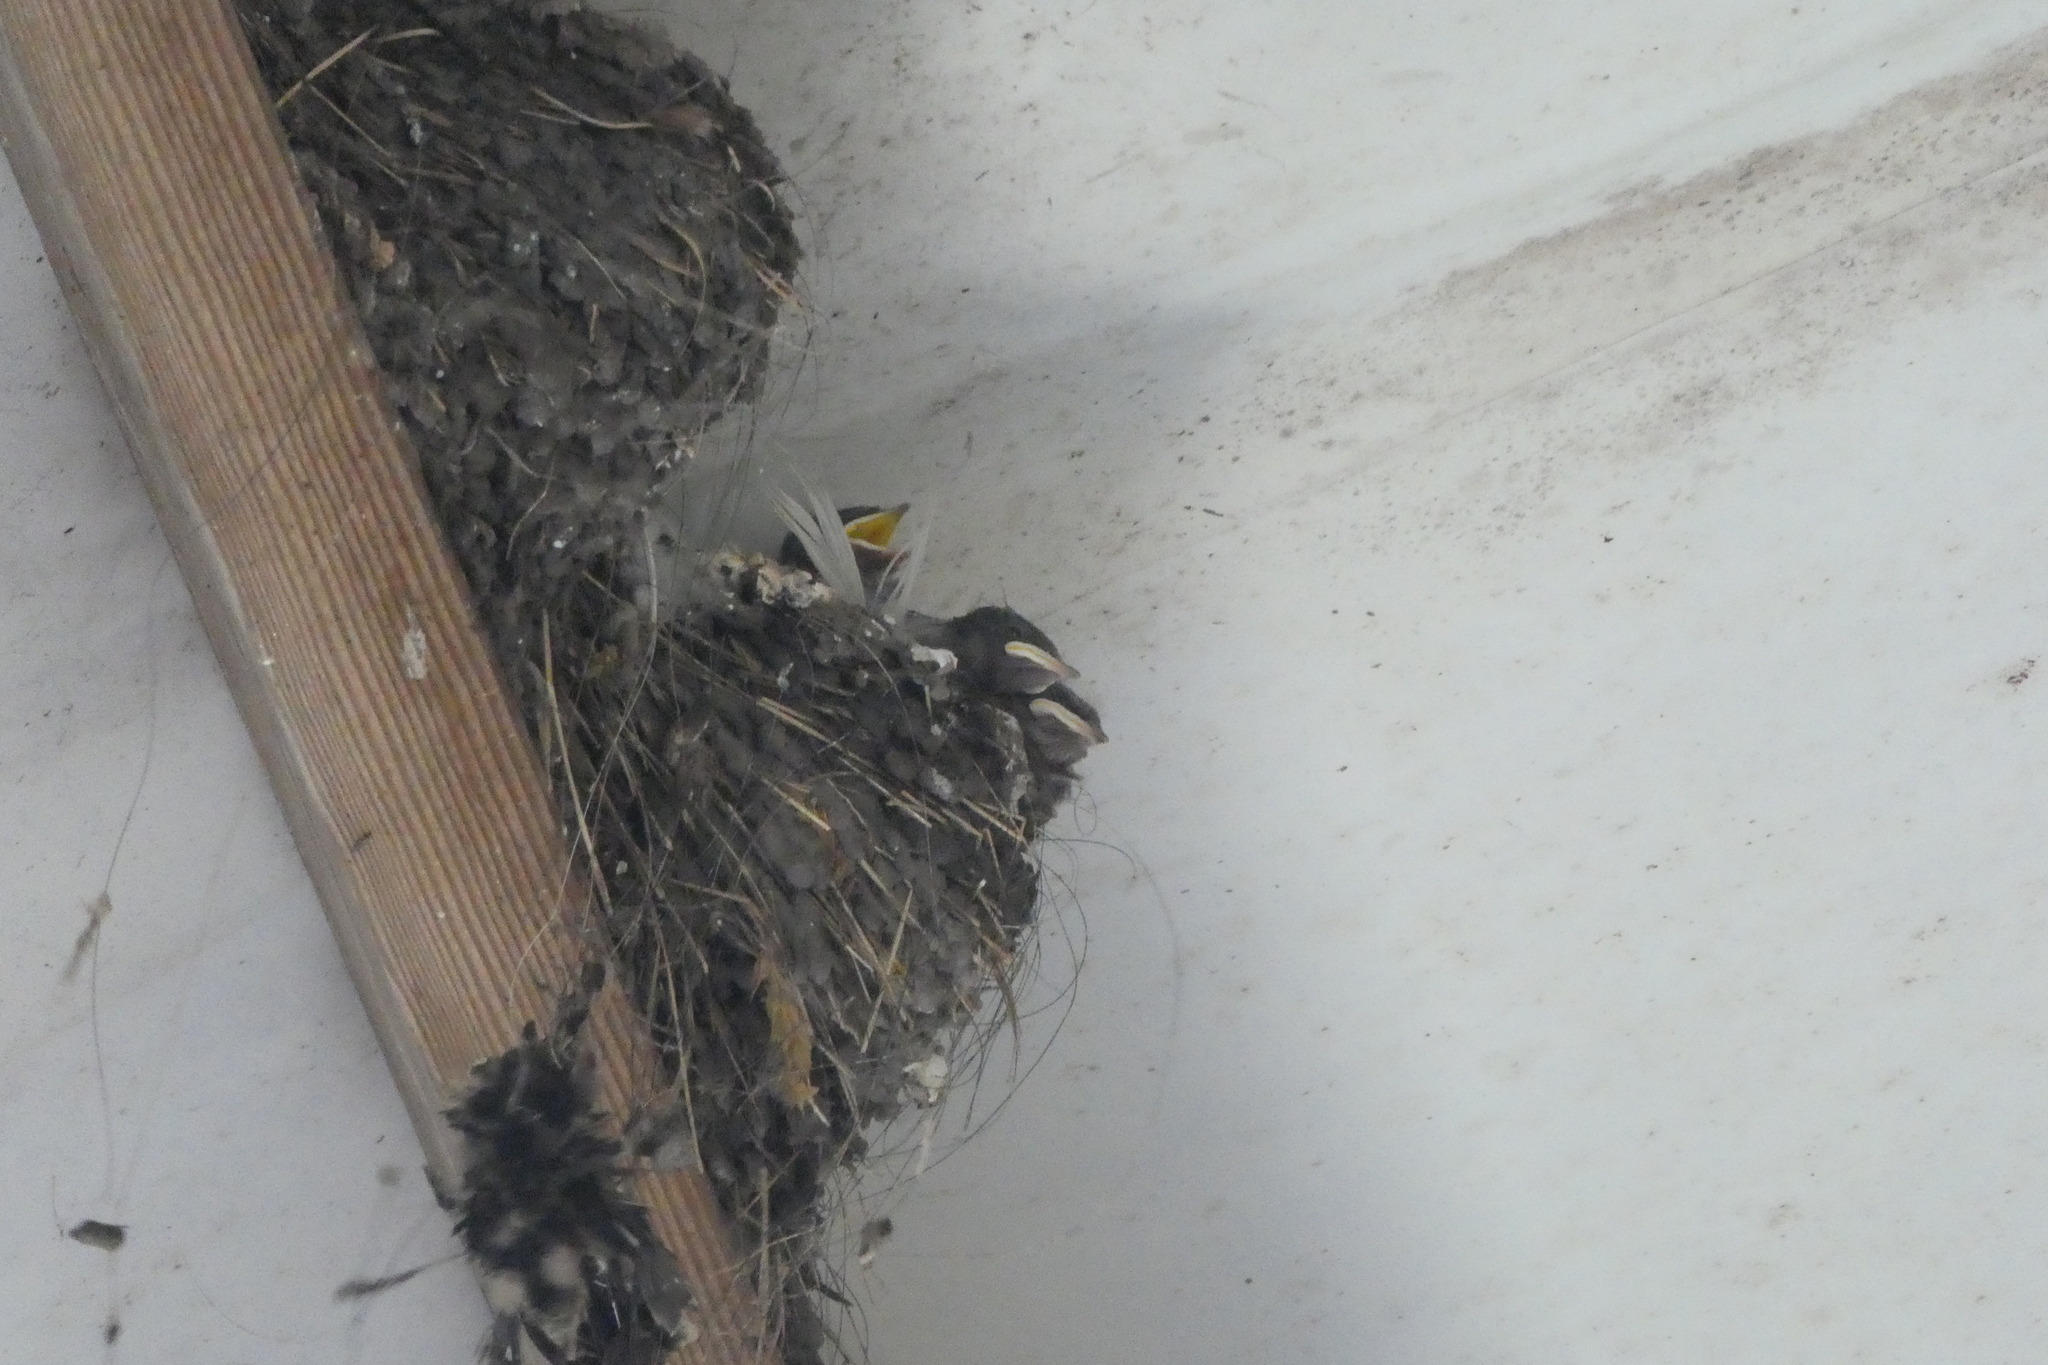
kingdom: Animalia
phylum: Chordata
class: Aves
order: Passeriformes
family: Hirundinidae
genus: Hirundo
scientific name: Hirundo rustica
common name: Barn swallow
